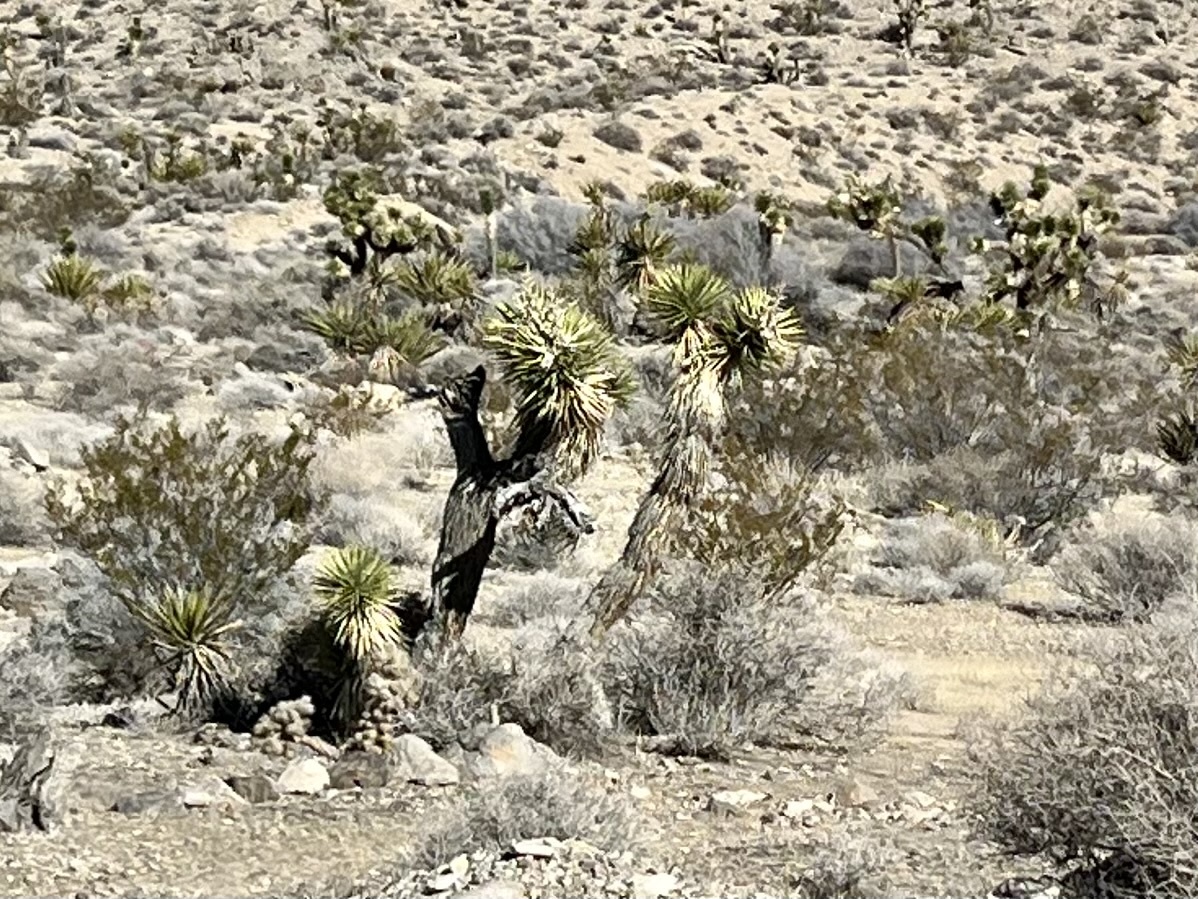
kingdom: Plantae
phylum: Tracheophyta
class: Liliopsida
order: Asparagales
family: Asparagaceae
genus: Yucca
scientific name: Yucca brevifolia
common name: Joshua tree
